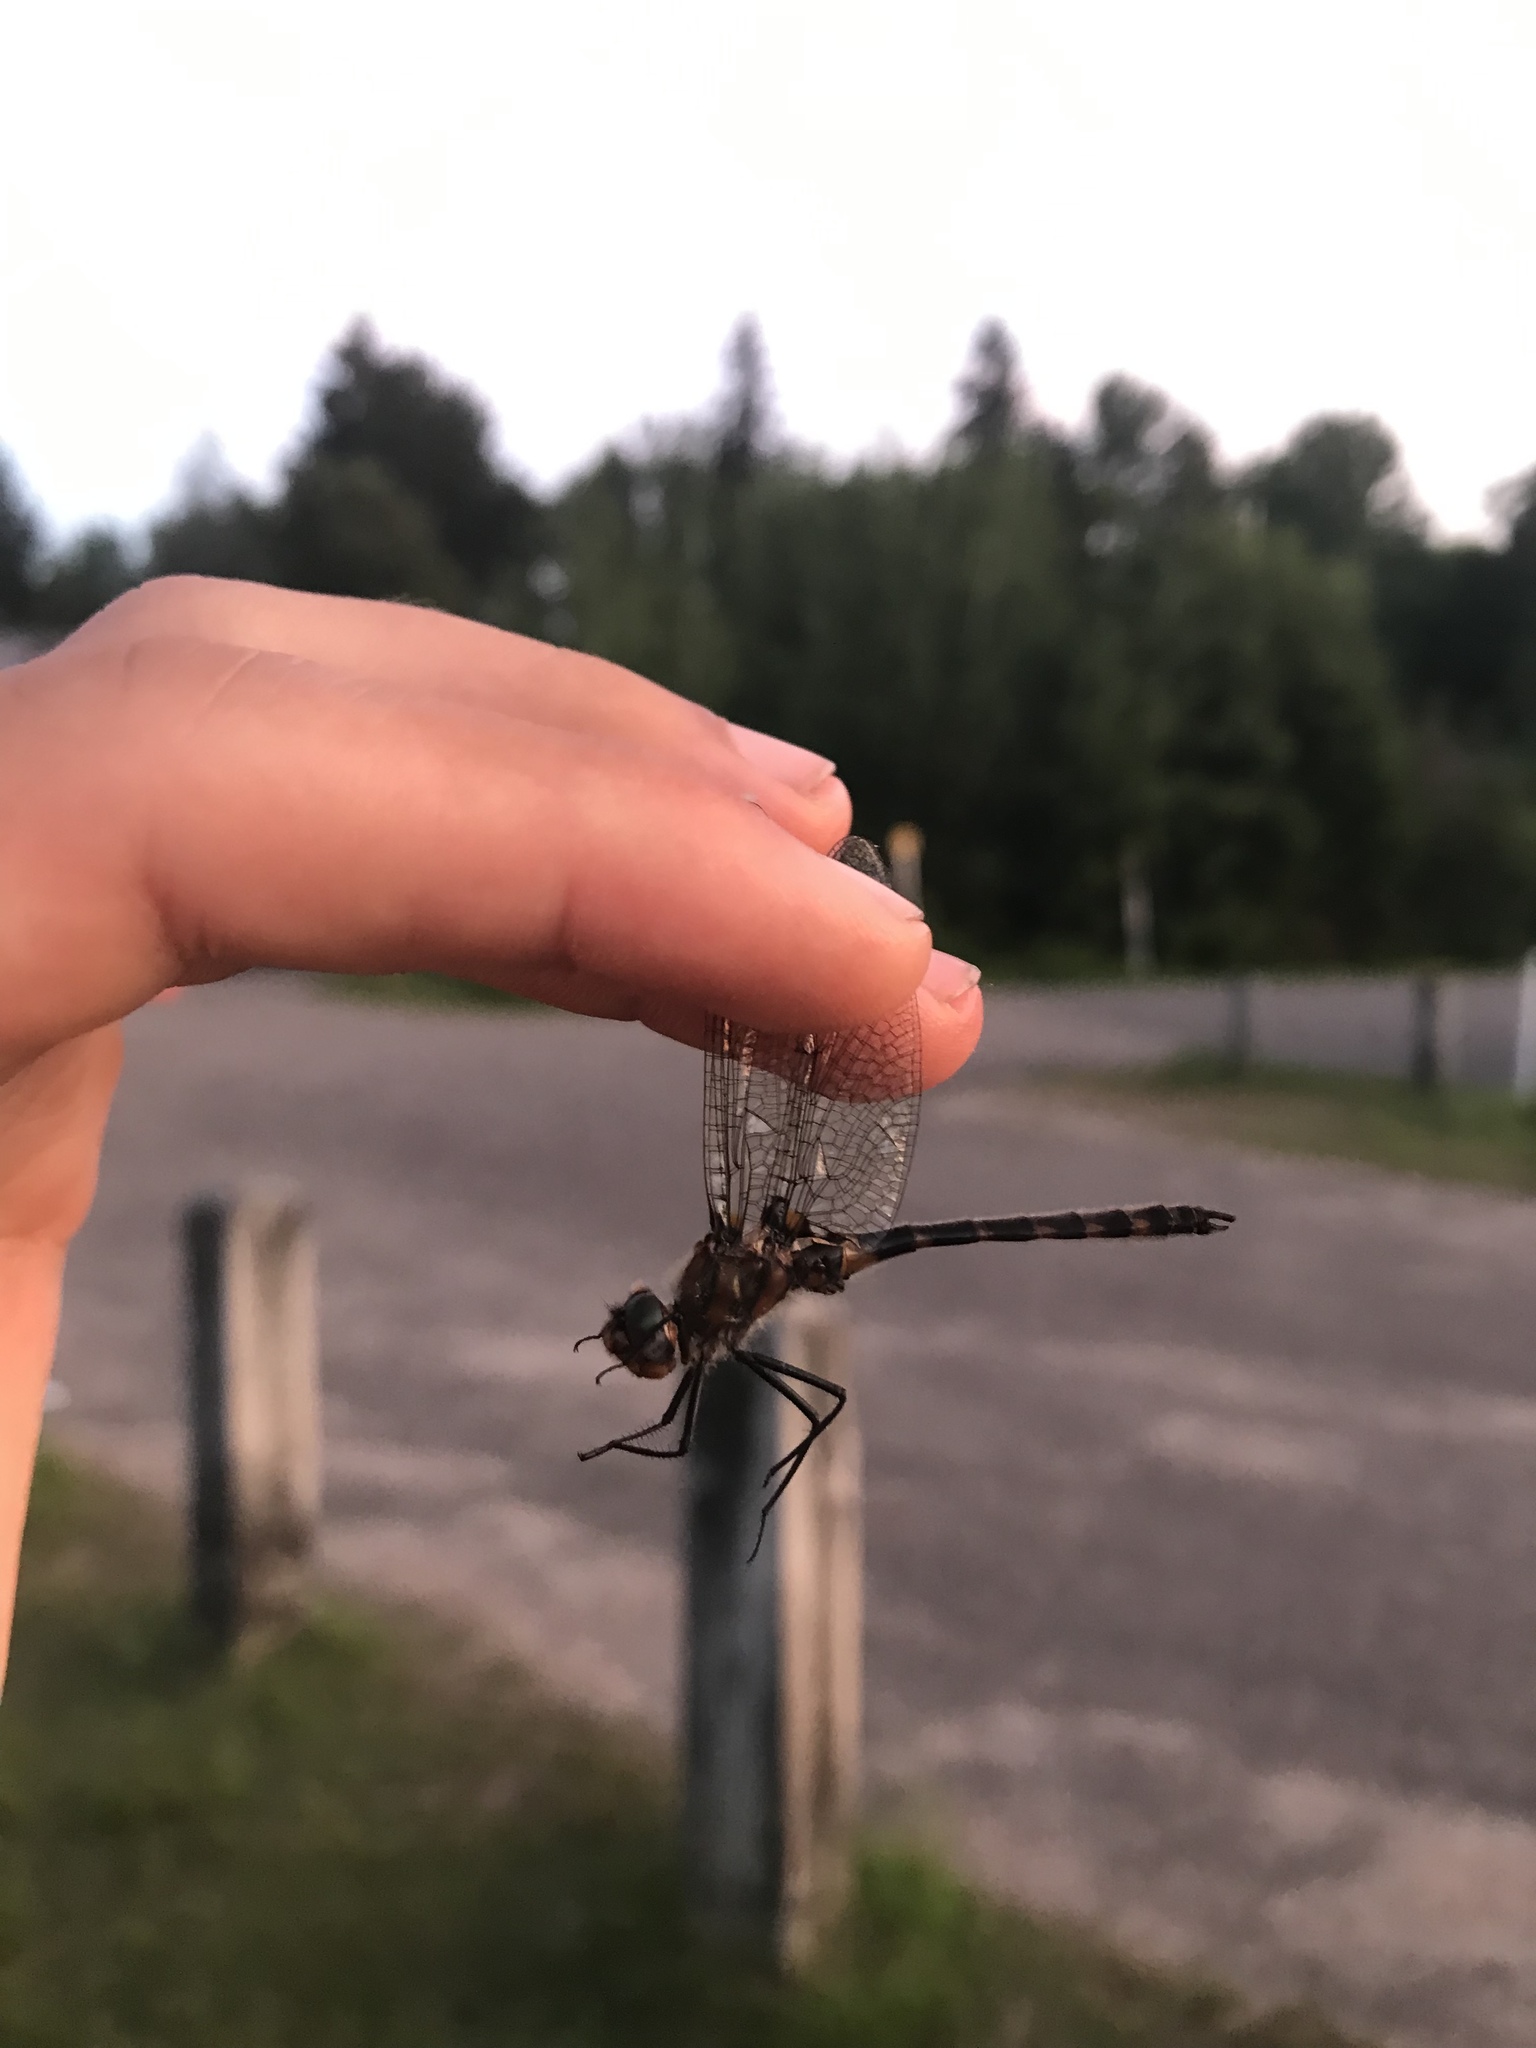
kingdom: Animalia
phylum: Arthropoda
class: Insecta
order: Odonata
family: Corduliidae
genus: Helocordulia
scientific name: Helocordulia uhleri
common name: Uhler's sundragon
